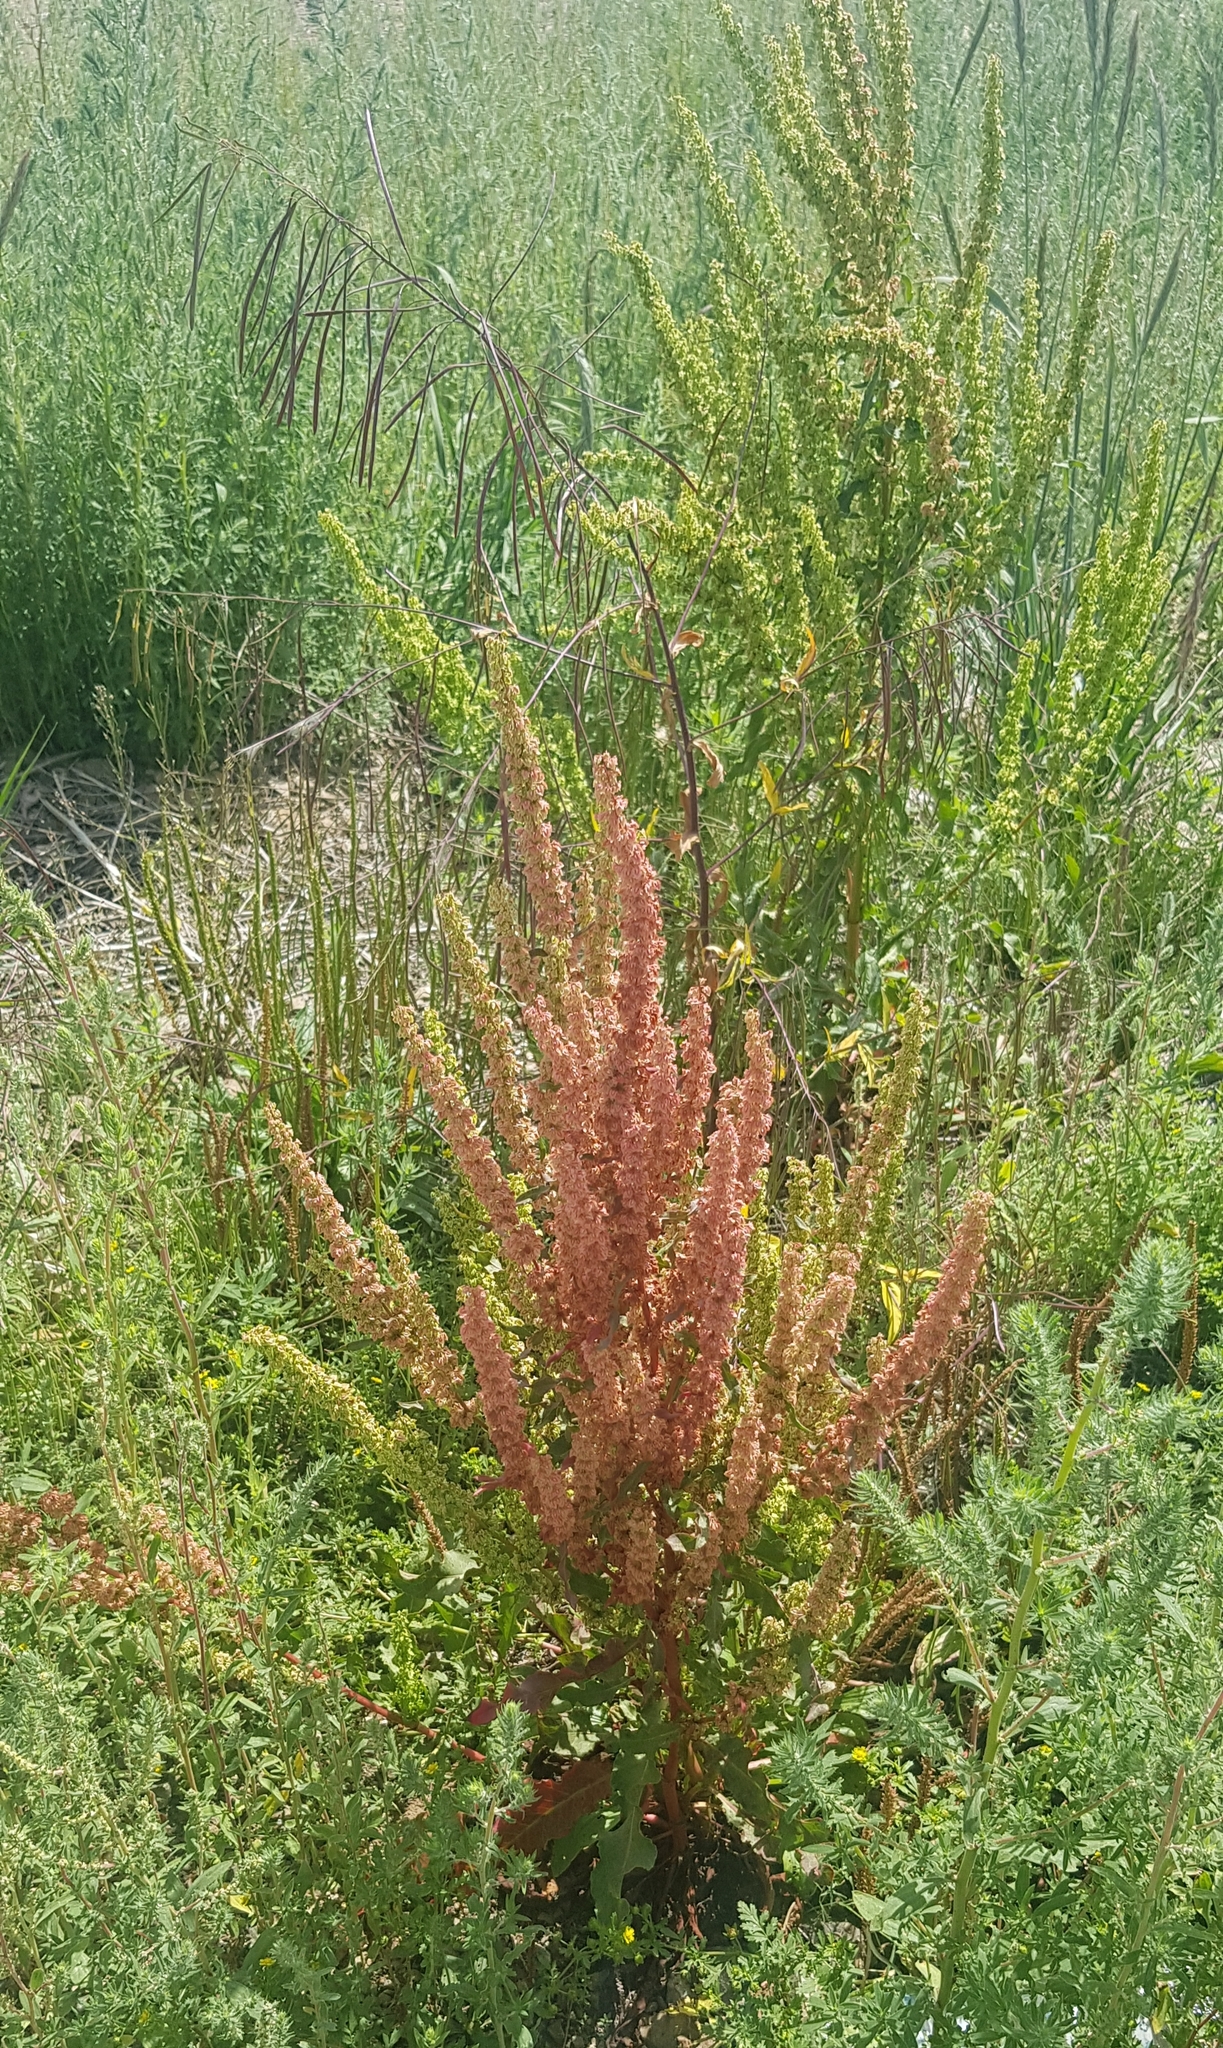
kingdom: Plantae
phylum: Tracheophyta
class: Magnoliopsida
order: Caryophyllales
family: Polygonaceae
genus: Rumex
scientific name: Rumex crispus
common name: Curled dock
